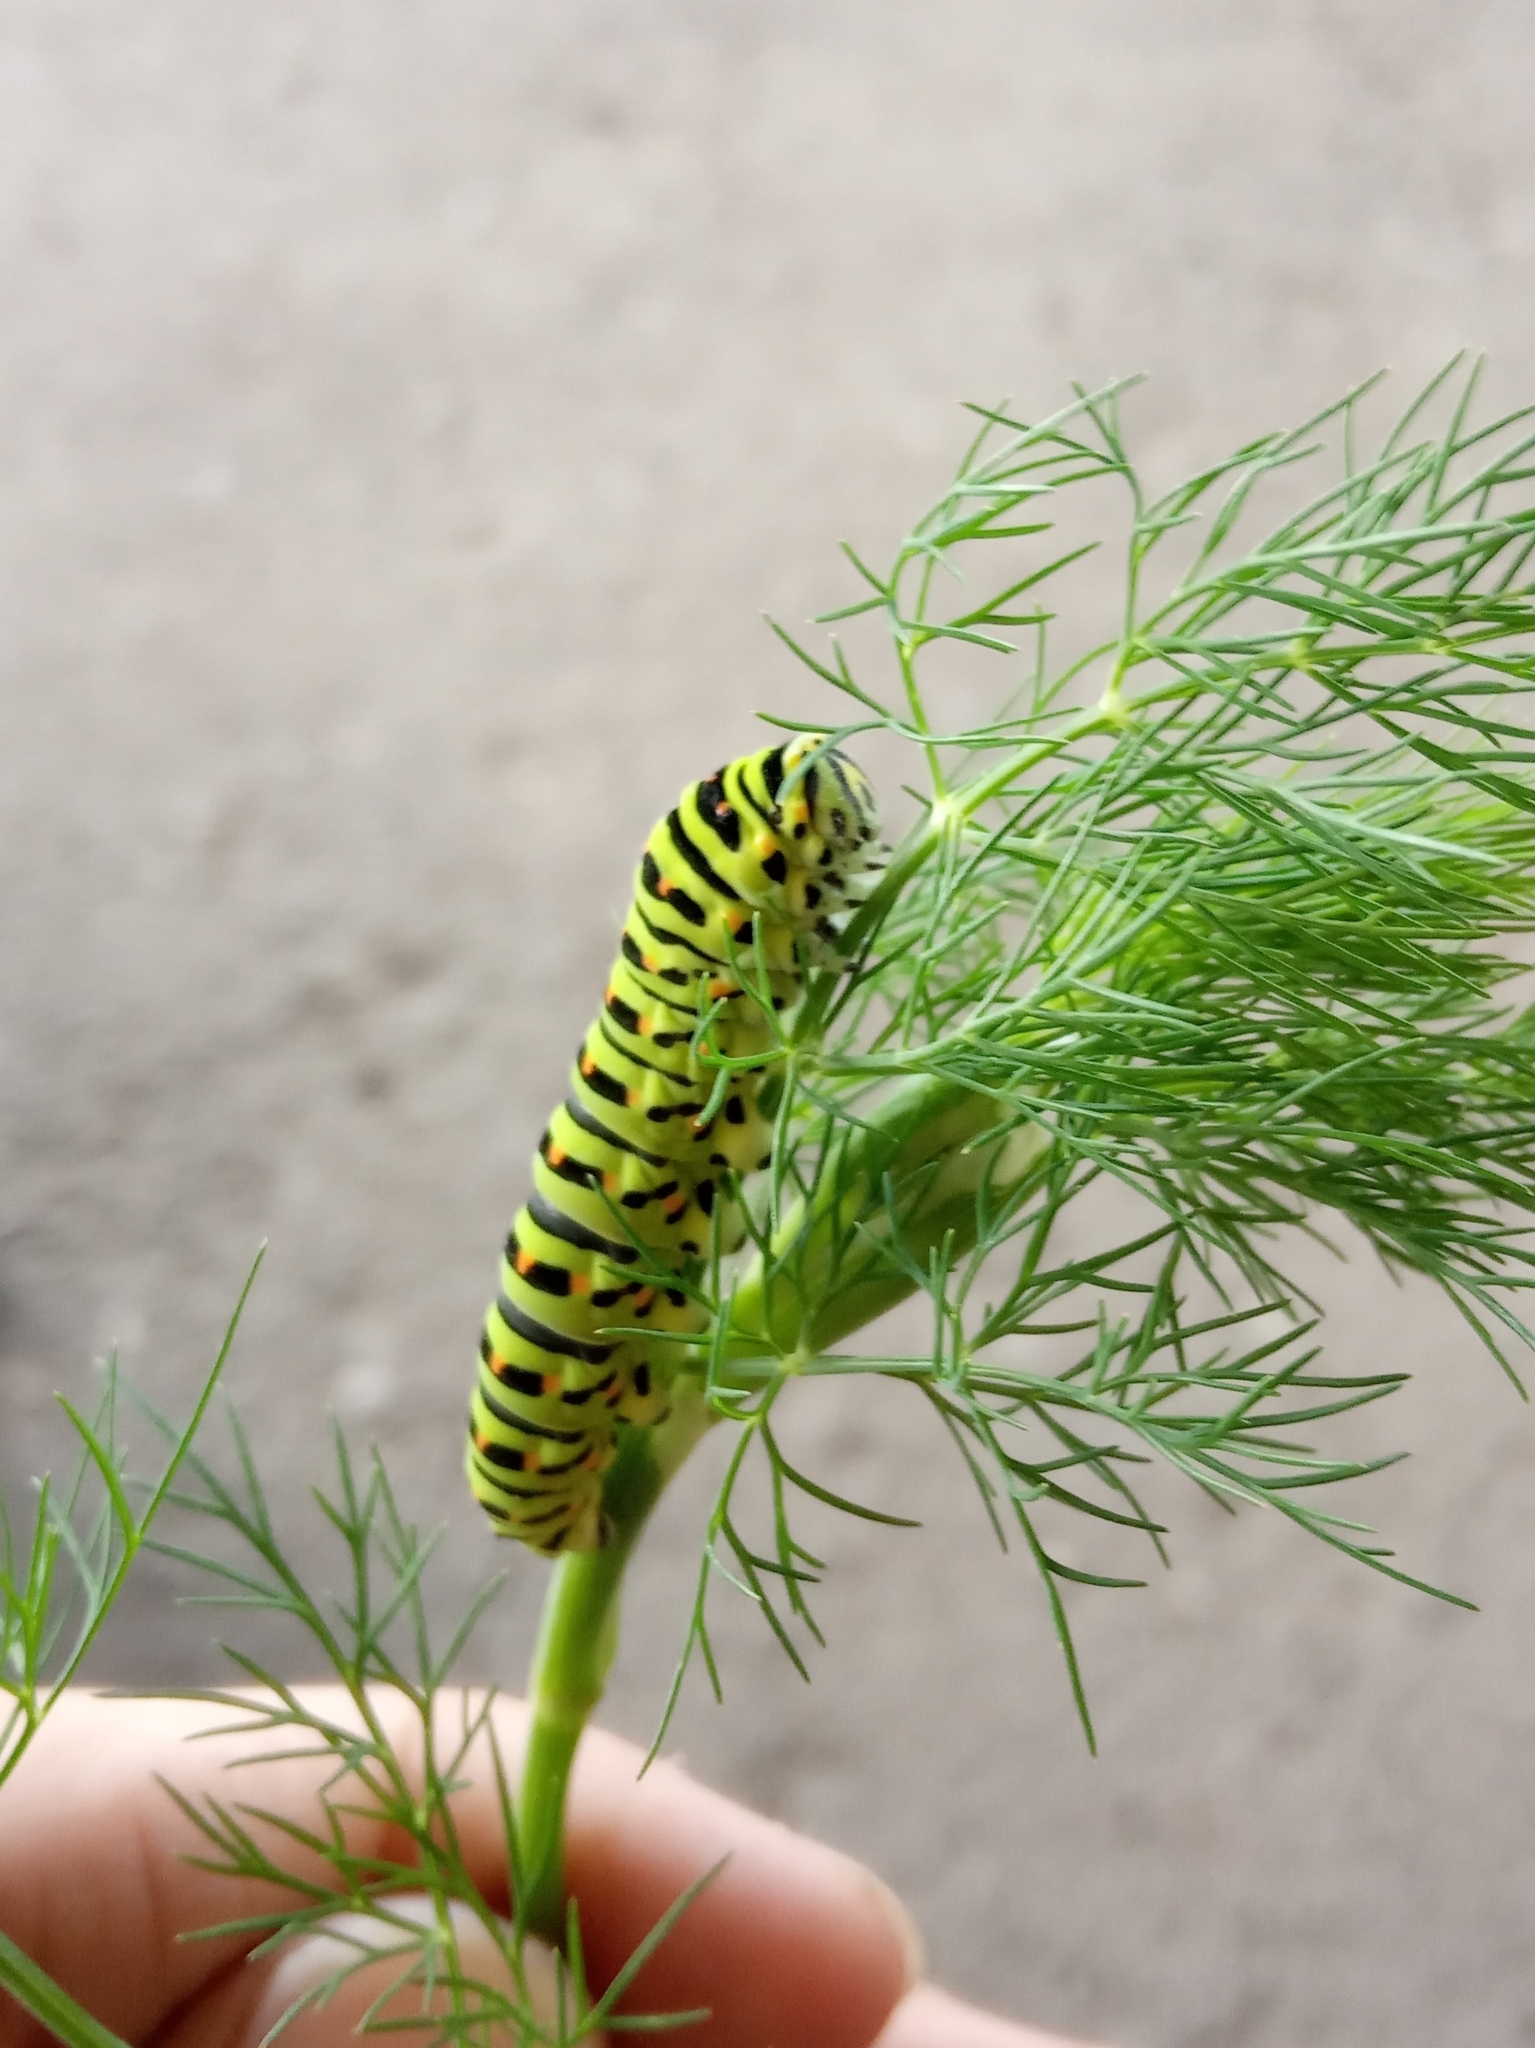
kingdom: Animalia
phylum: Arthropoda
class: Insecta
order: Lepidoptera
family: Papilionidae
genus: Papilio
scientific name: Papilio machaon
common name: Swallowtail
